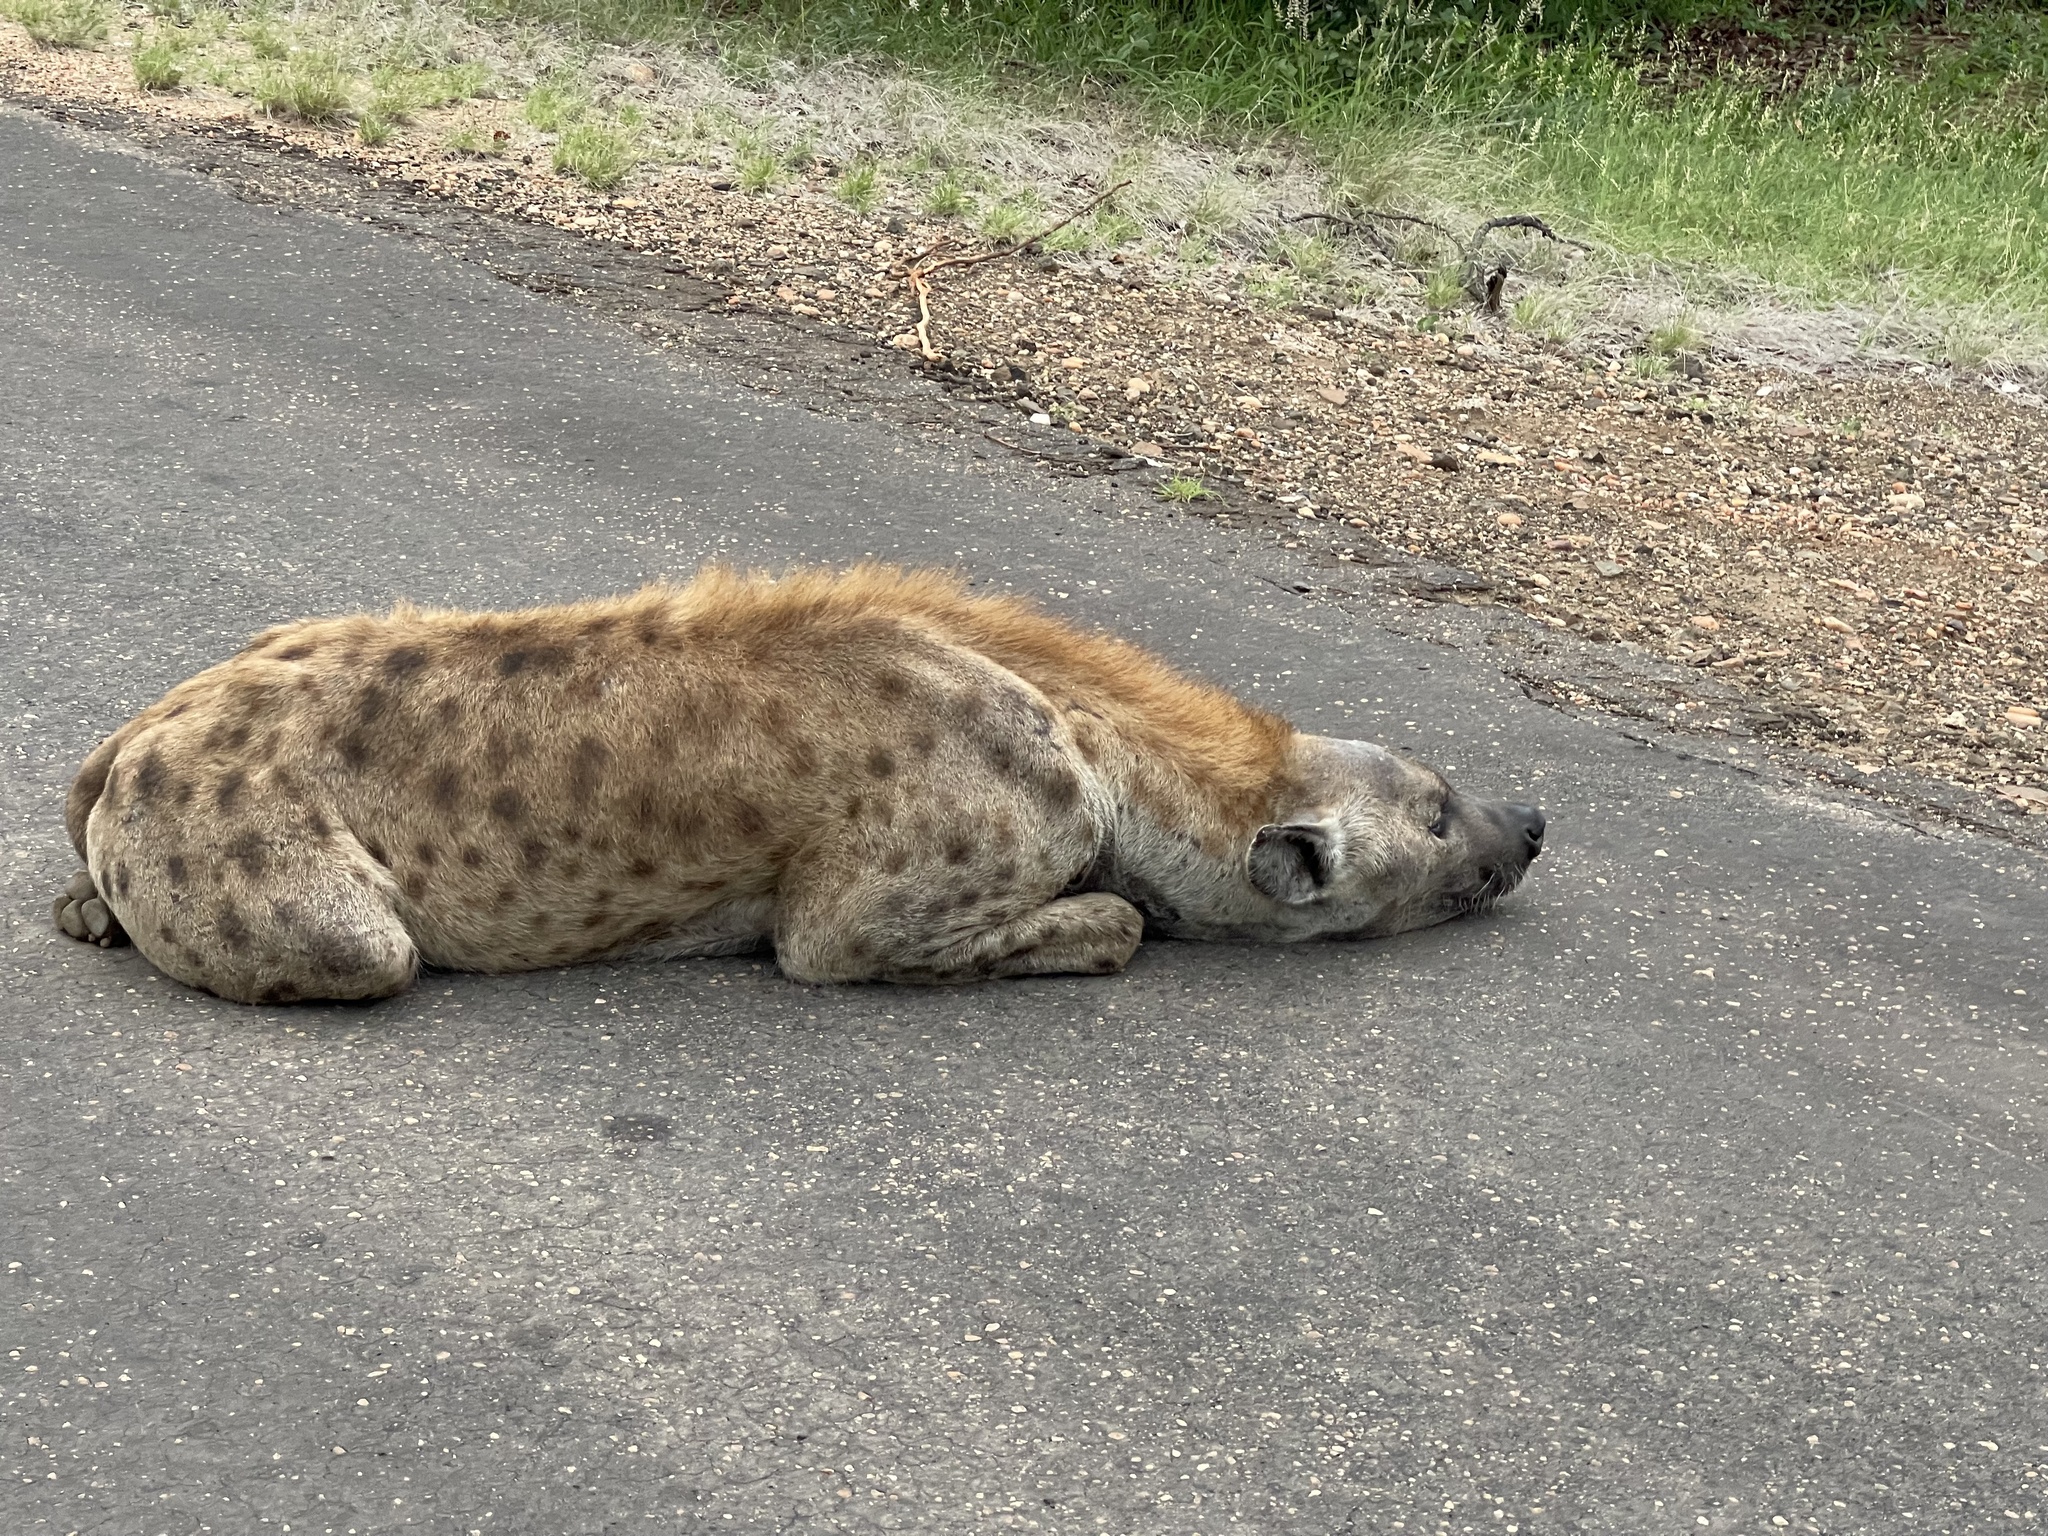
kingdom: Animalia
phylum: Chordata
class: Mammalia
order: Carnivora
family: Hyaenidae
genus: Crocuta
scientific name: Crocuta crocuta
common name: Spotted hyaena
